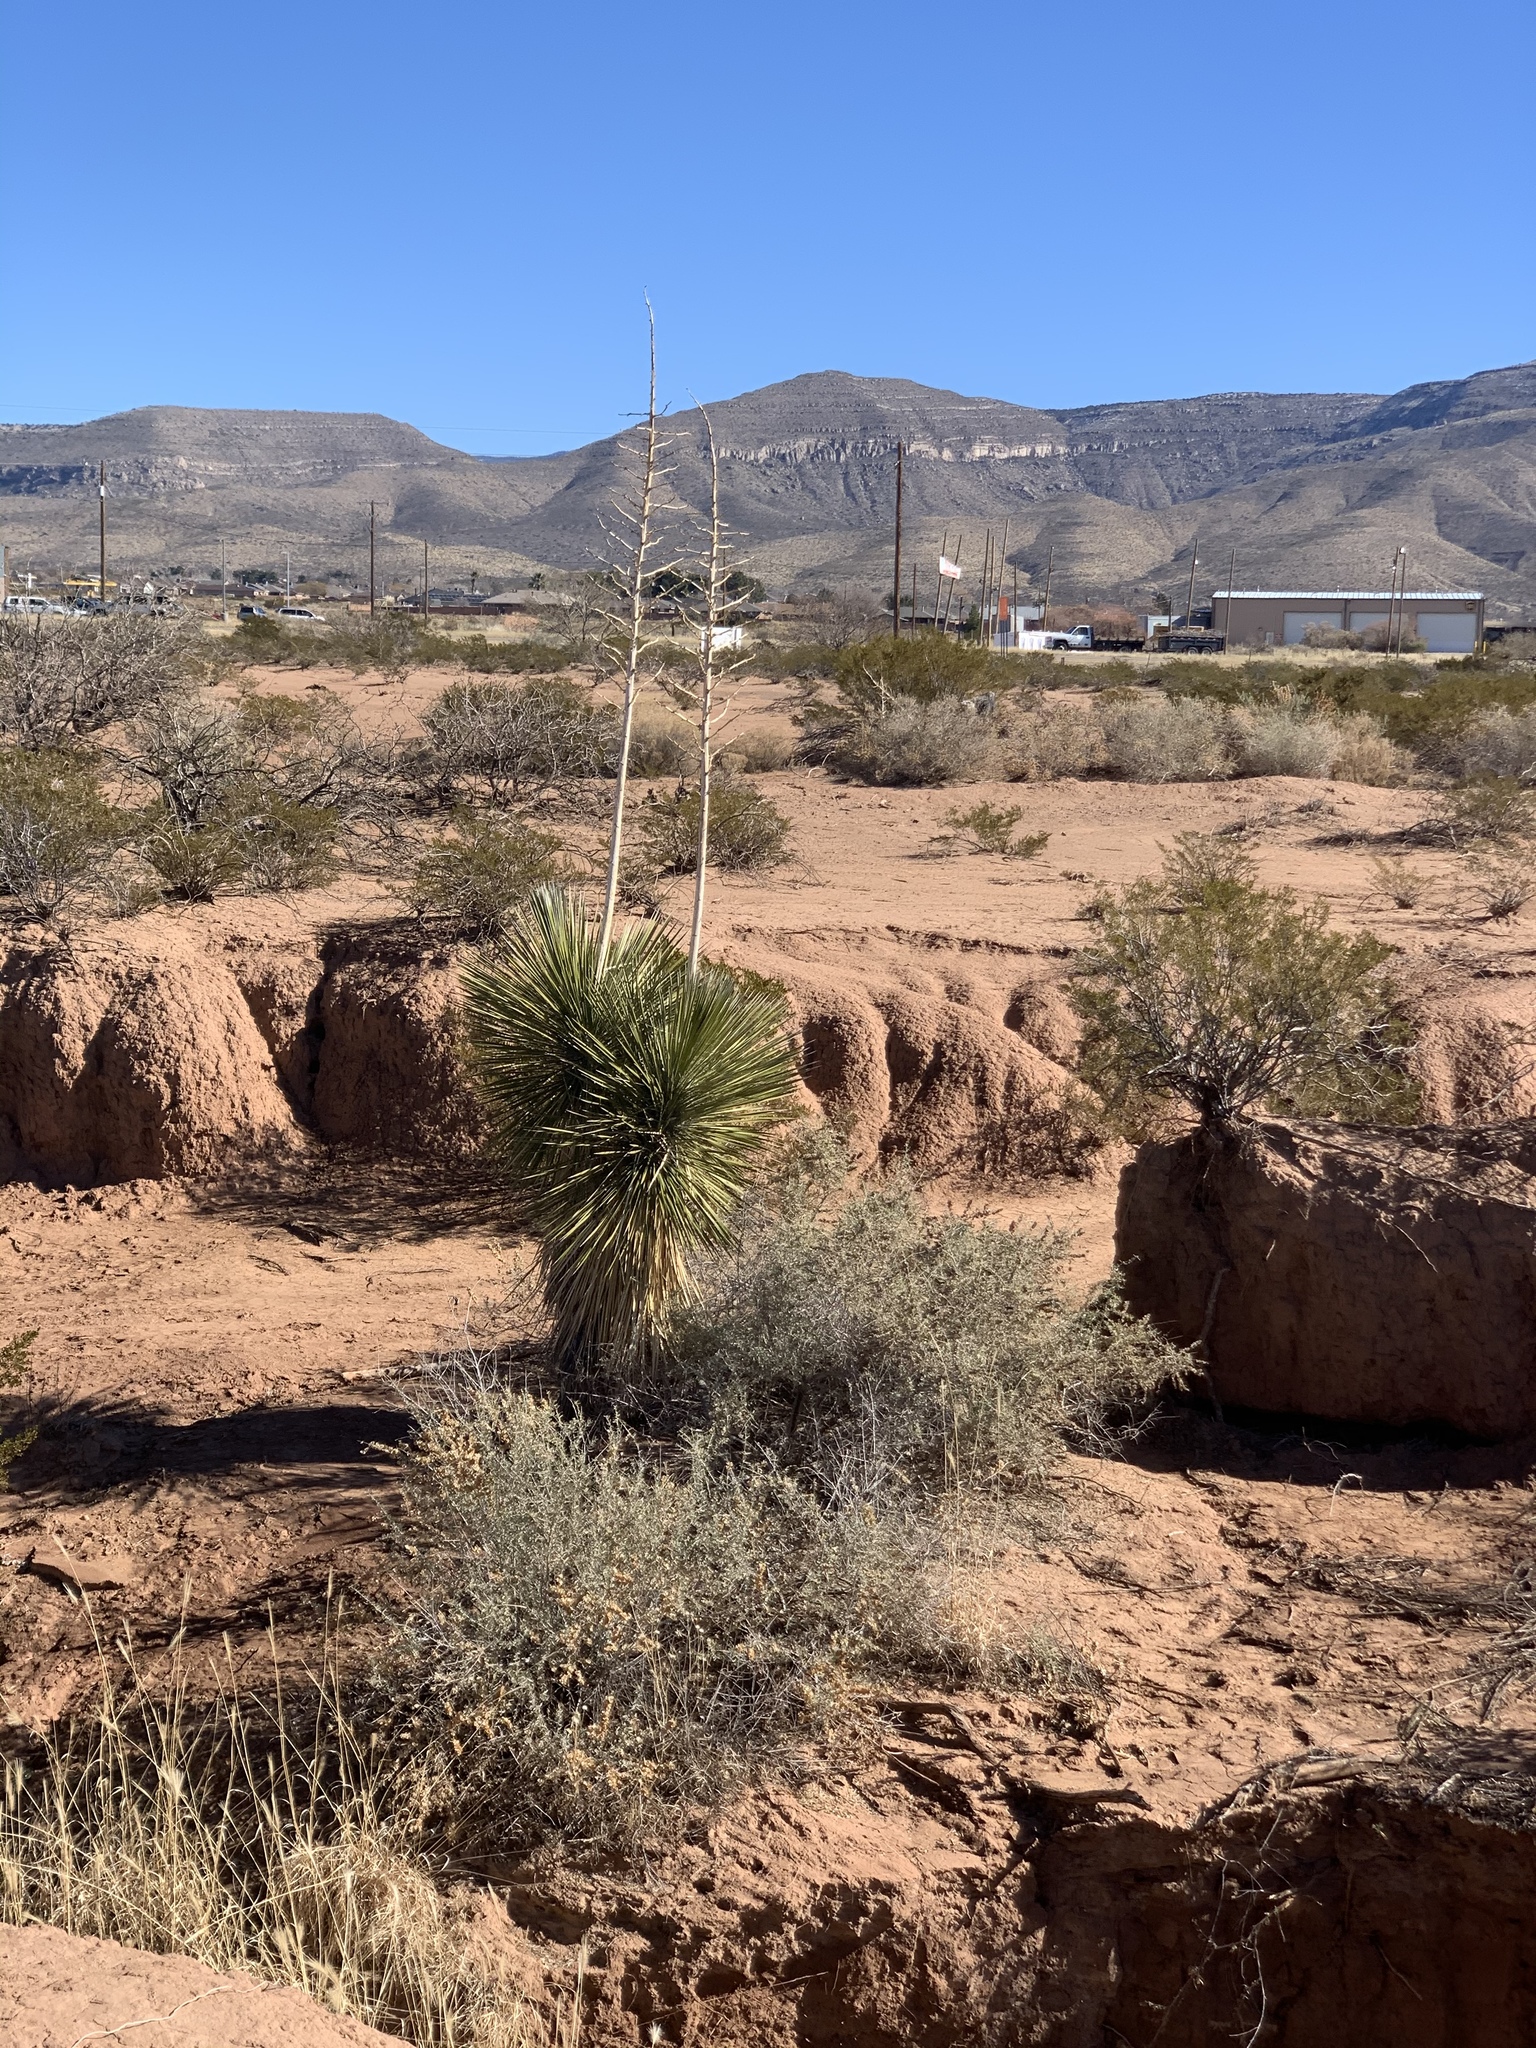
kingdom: Plantae
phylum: Tracheophyta
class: Liliopsida
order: Asparagales
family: Asparagaceae
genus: Yucca
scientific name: Yucca elata
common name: Palmella
